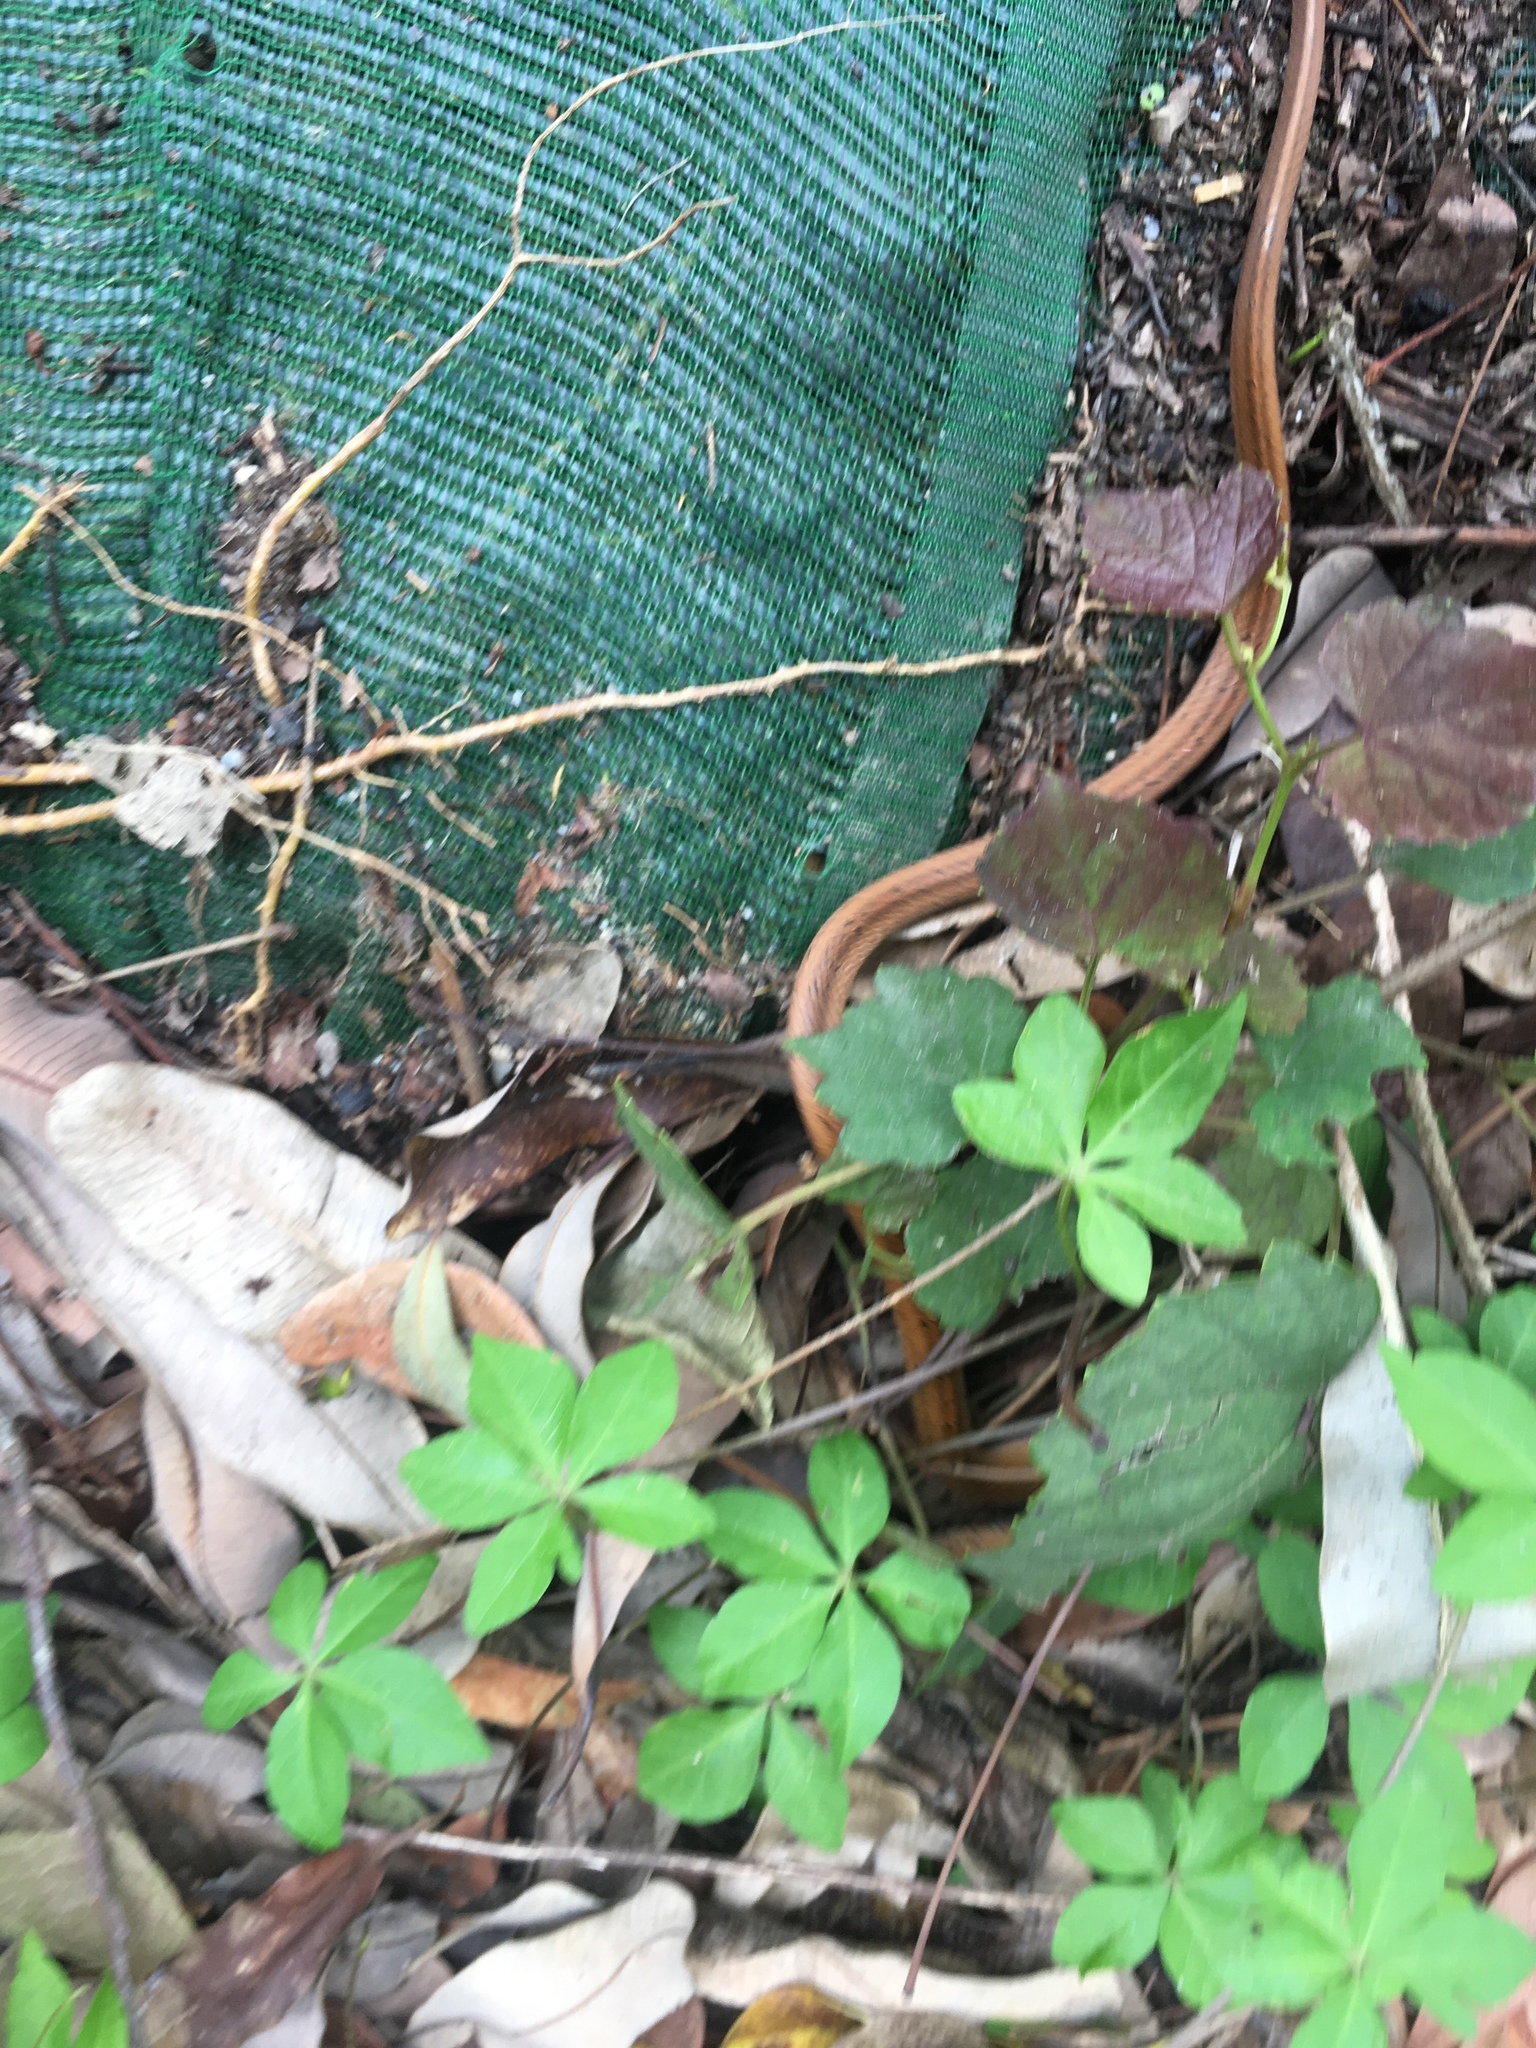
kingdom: Animalia
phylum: Chordata
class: Squamata
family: Colubridae
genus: Oligodon
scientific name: Oligodon formosanus
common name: Formosa kukri snake
